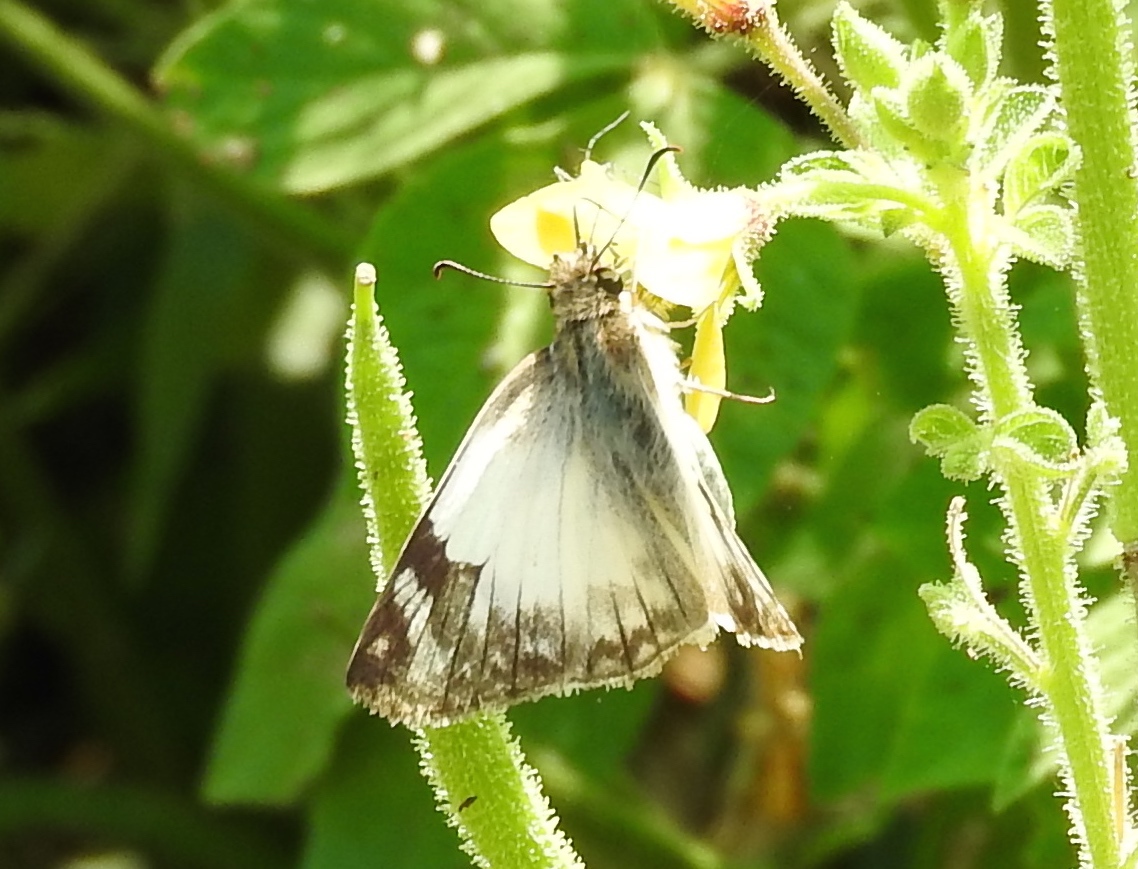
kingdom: Animalia
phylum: Arthropoda
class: Insecta
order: Lepidoptera
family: Hesperiidae
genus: Heliopetes
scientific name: Heliopetes macaira
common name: Turk's-cap white-skipper
